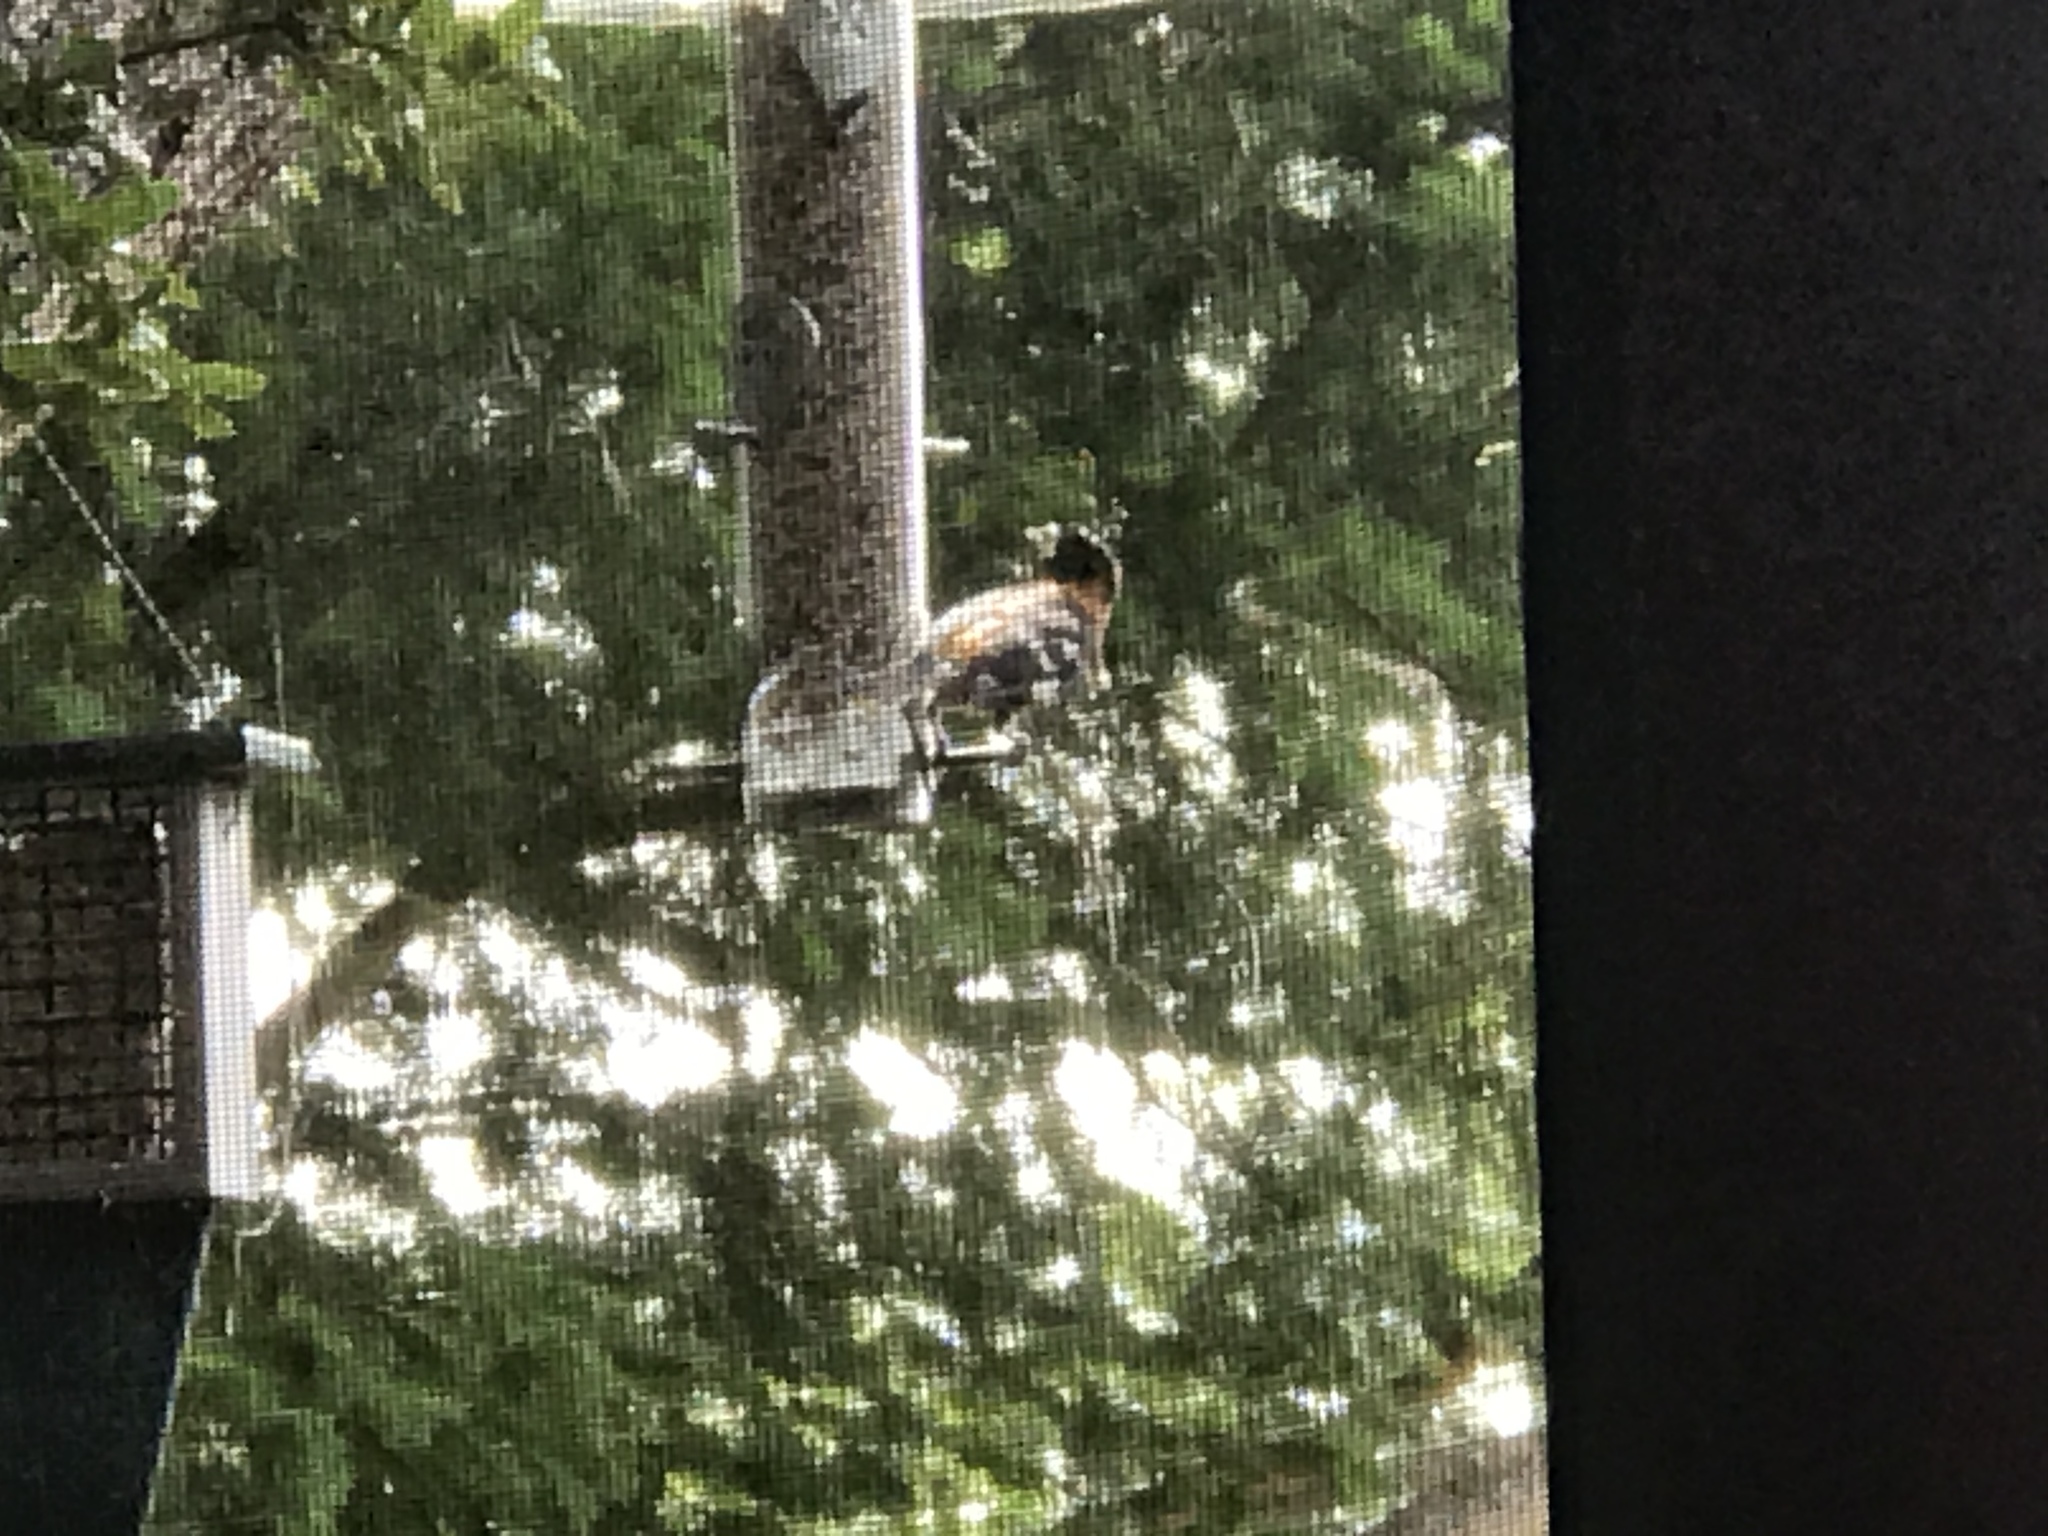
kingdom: Animalia
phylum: Chordata
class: Aves
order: Passeriformes
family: Cardinalidae
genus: Pheucticus
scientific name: Pheucticus melanocephalus
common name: Black-headed grosbeak
